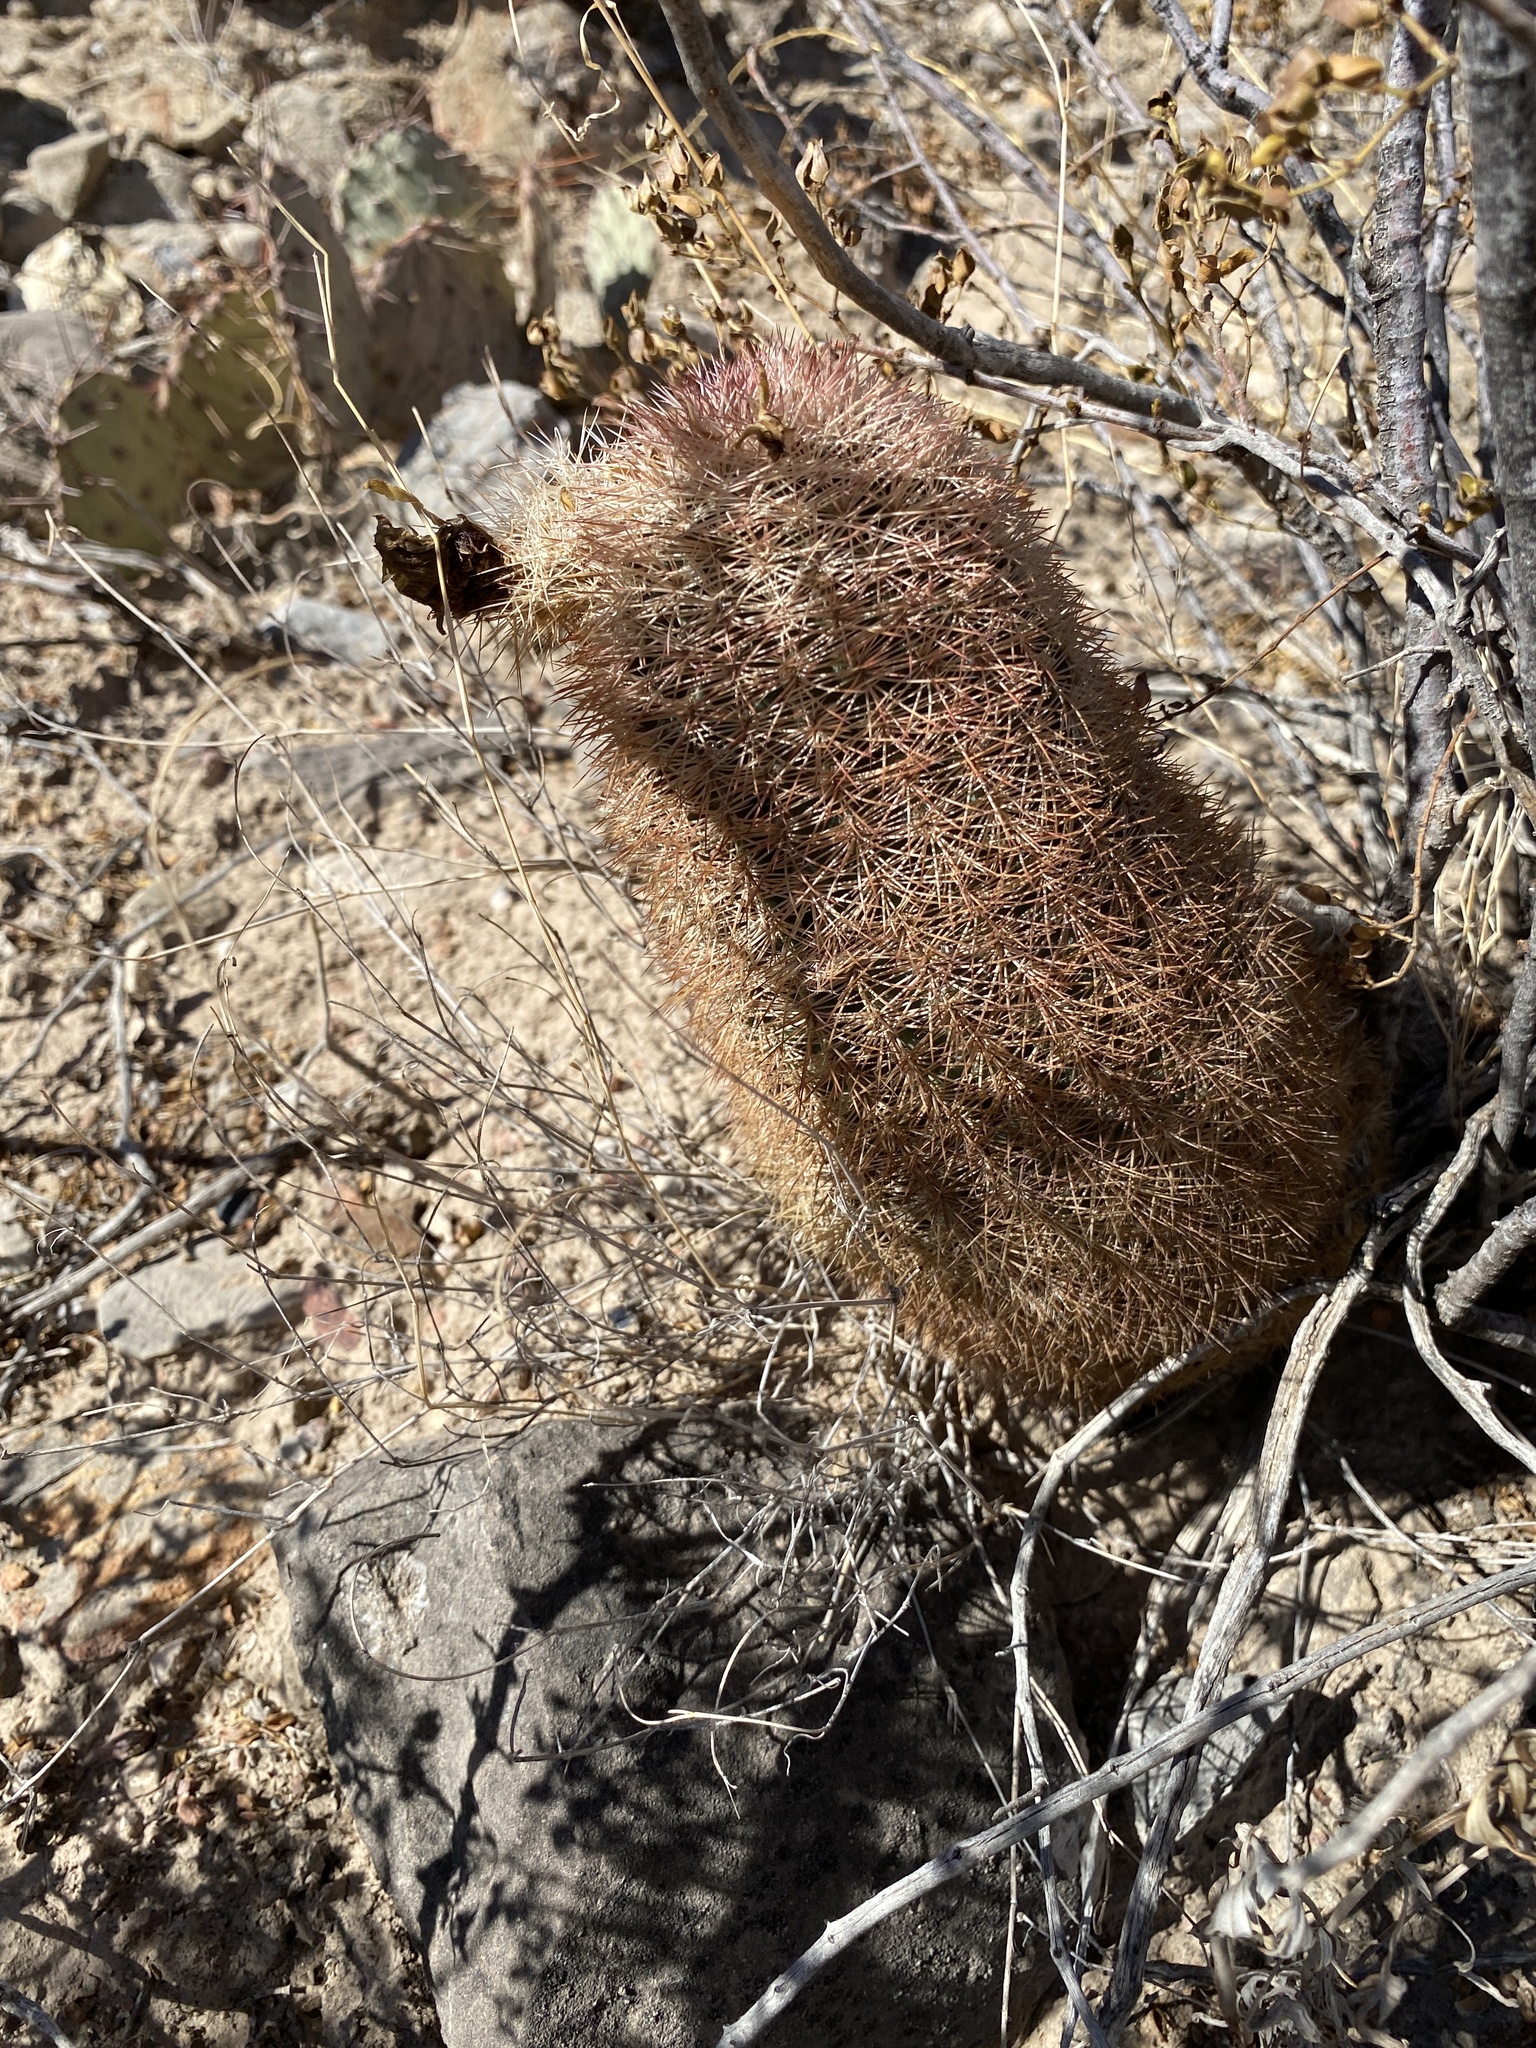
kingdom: Plantae
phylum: Tracheophyta
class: Magnoliopsida
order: Caryophyllales
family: Cactaceae
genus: Echinocereus
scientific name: Echinocereus dasyacanthus
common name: Spiny hedgehog cactus
